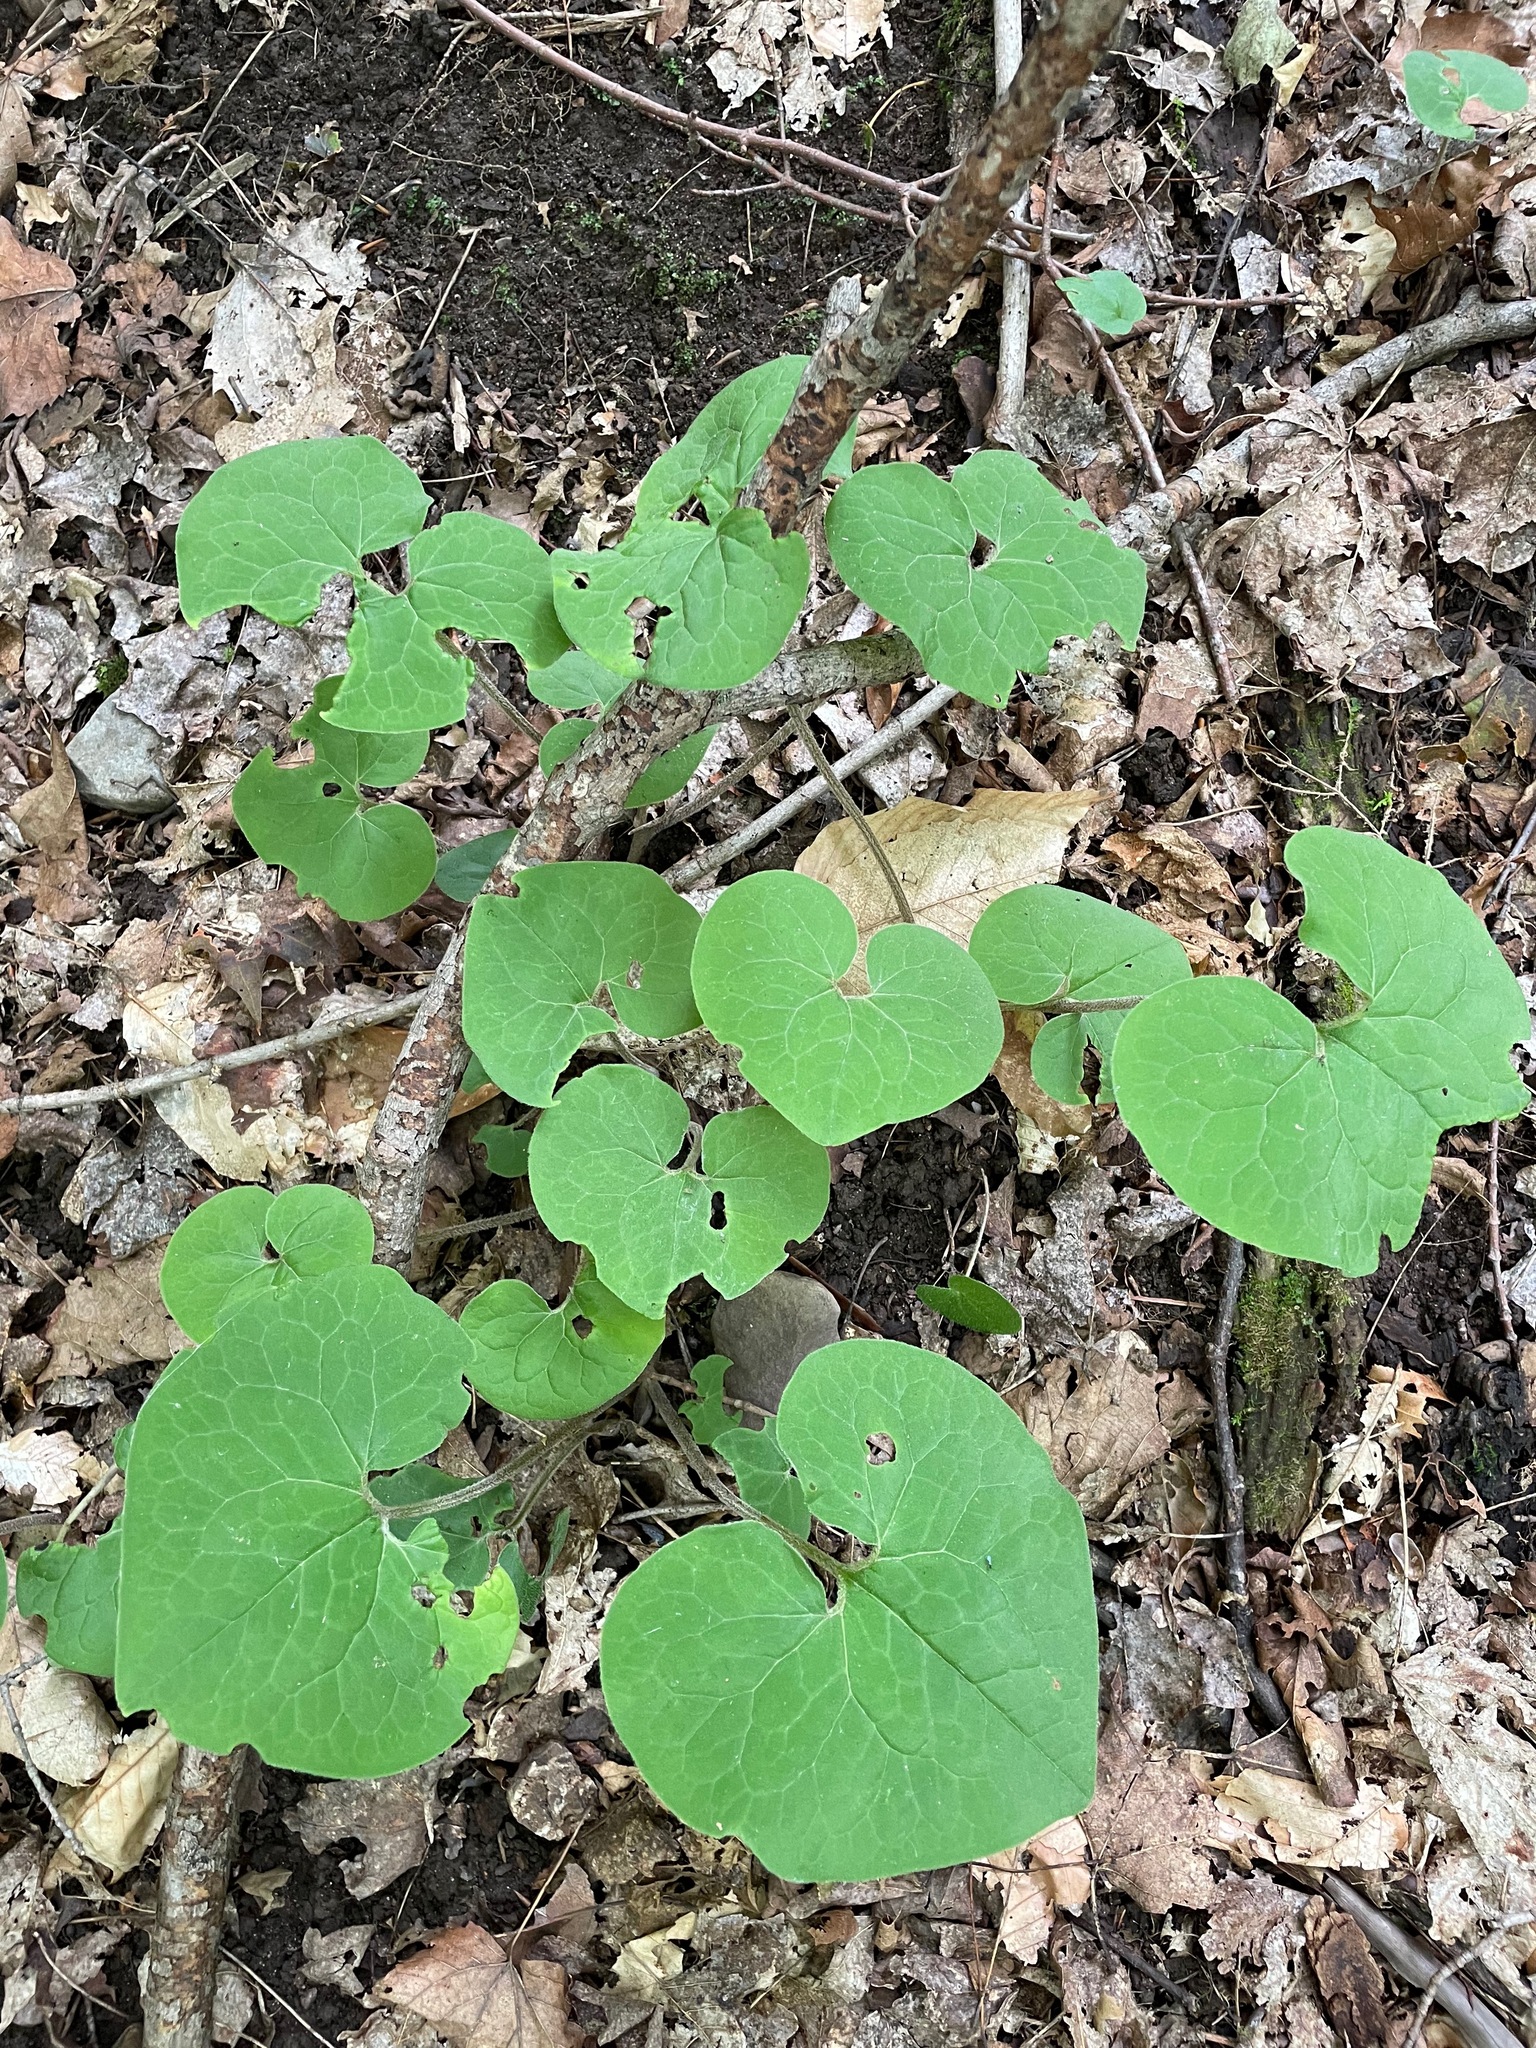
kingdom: Plantae
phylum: Tracheophyta
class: Magnoliopsida
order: Piperales
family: Aristolochiaceae
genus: Asarum
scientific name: Asarum canadense
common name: Wild ginger
